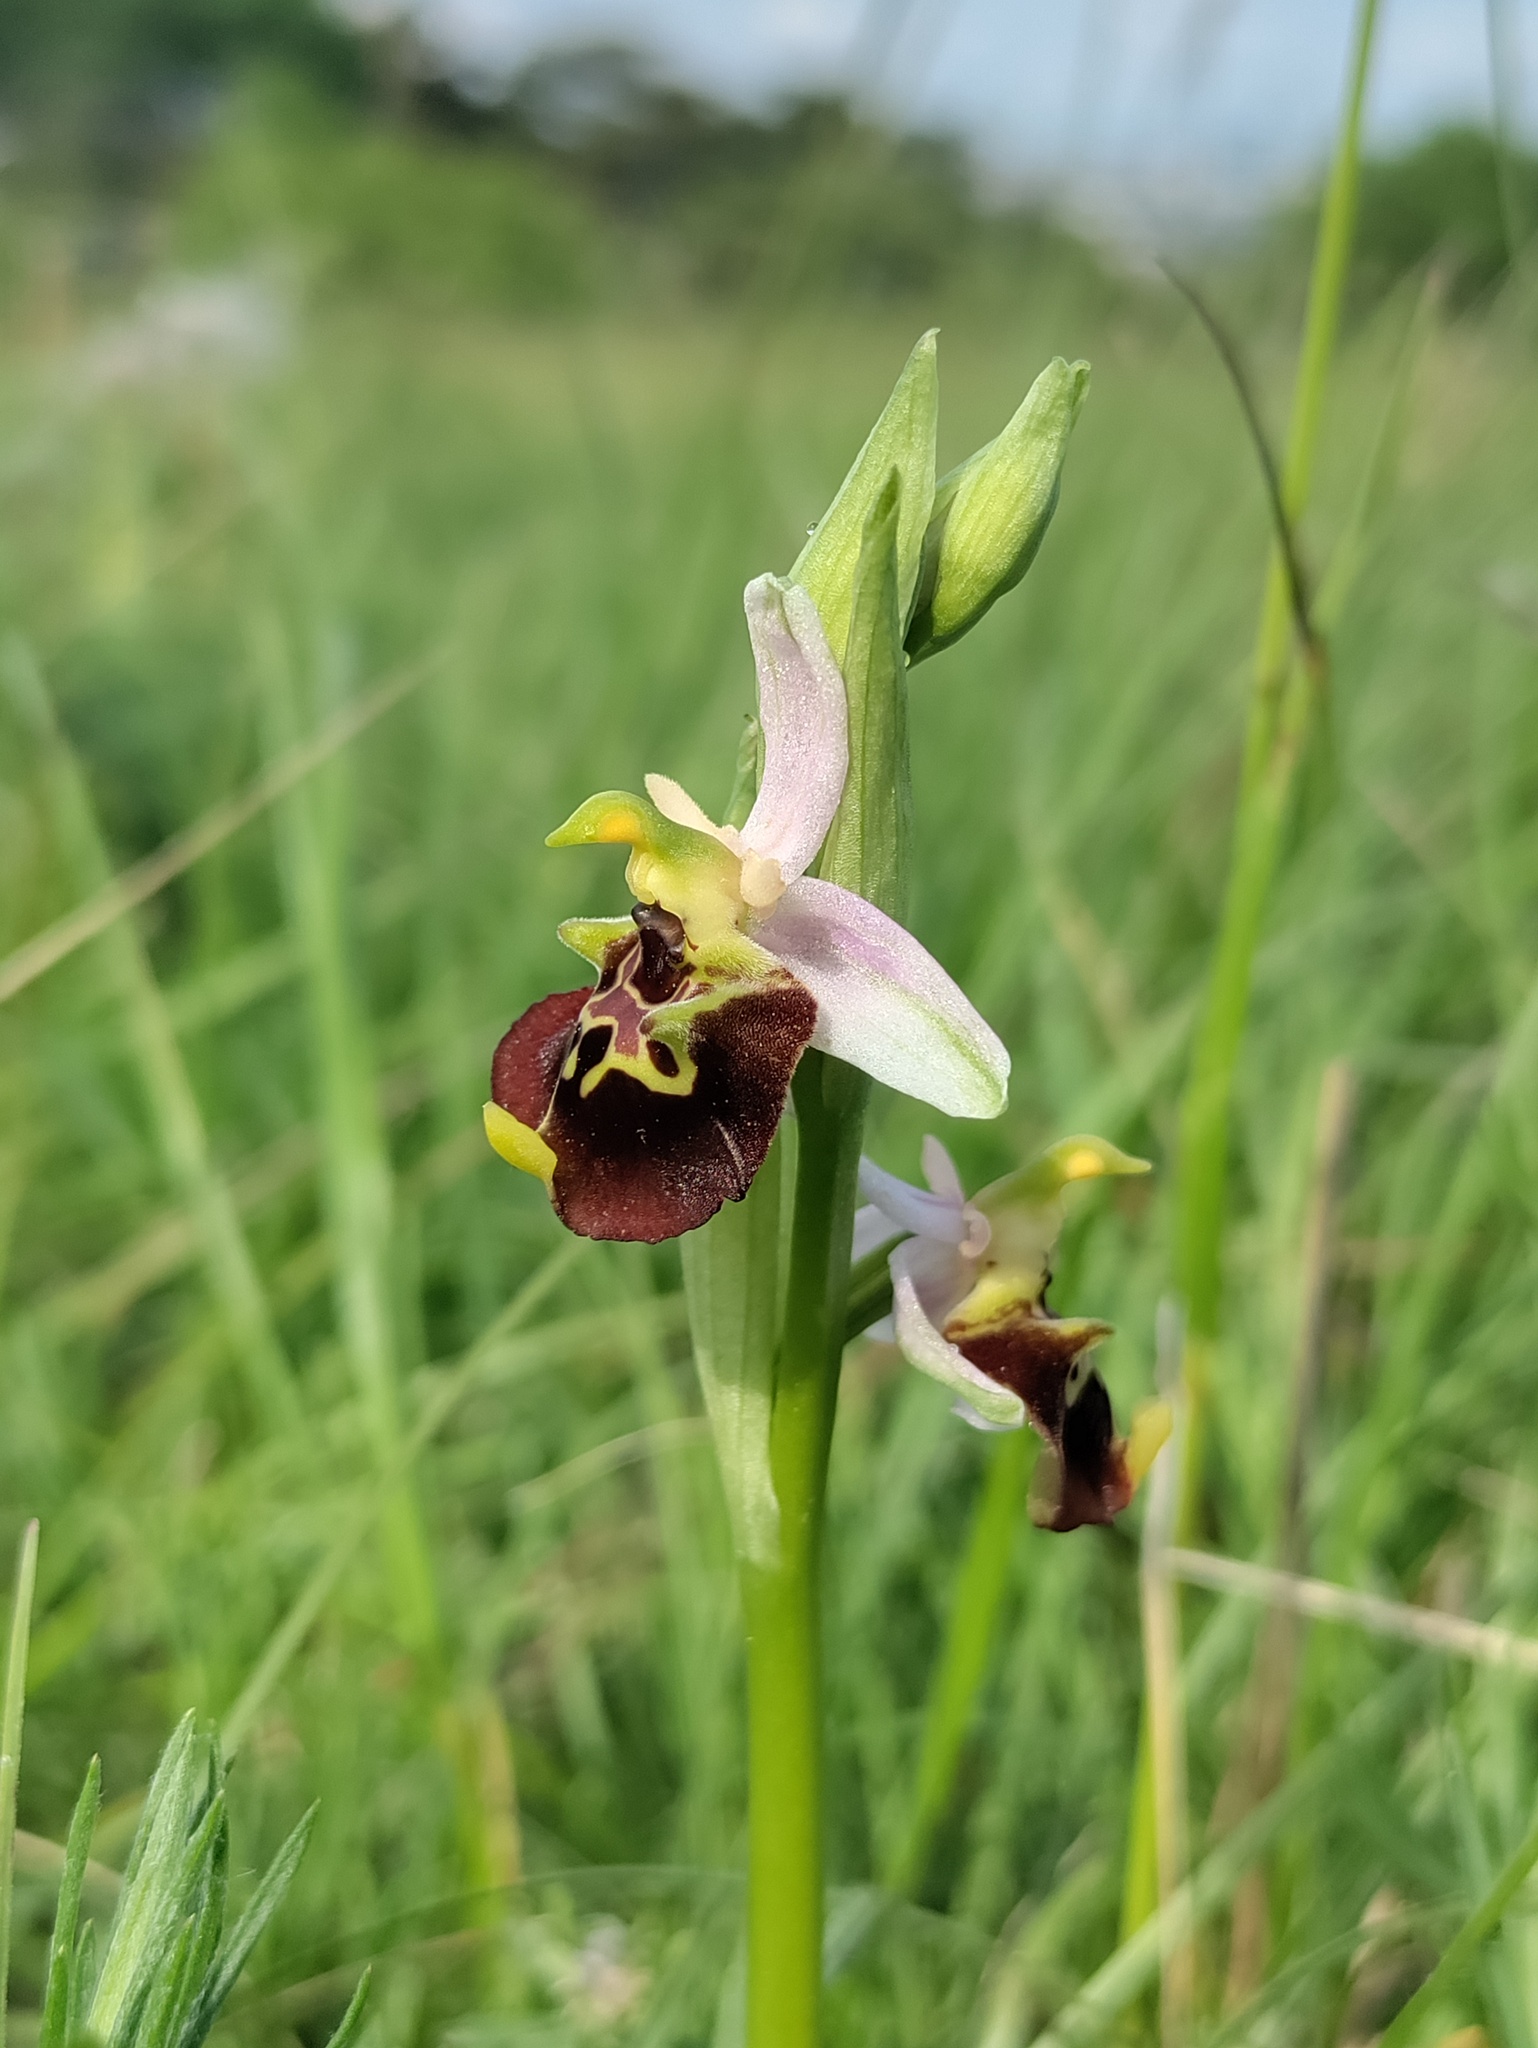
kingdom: Plantae
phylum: Tracheophyta
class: Liliopsida
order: Asparagales
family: Orchidaceae
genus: Ophrys
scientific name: Ophrys holosericea
